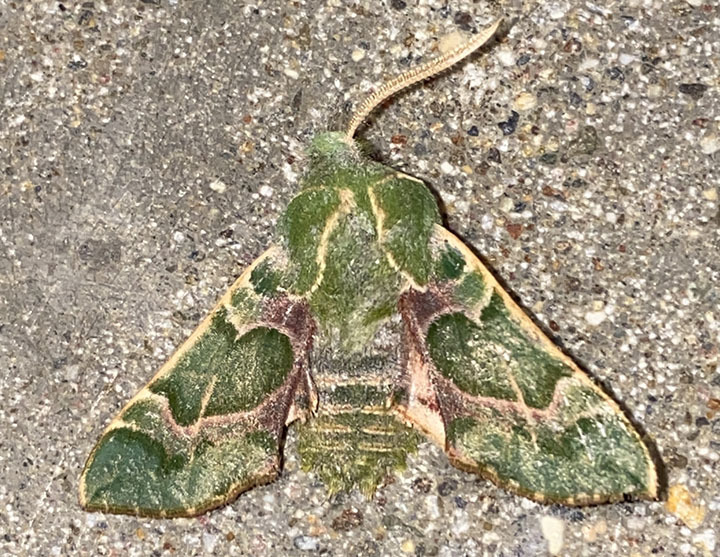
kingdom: Animalia
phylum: Arthropoda
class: Insecta
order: Lepidoptera
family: Sphingidae
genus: Proserpinus
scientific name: Proserpinus lucidus
